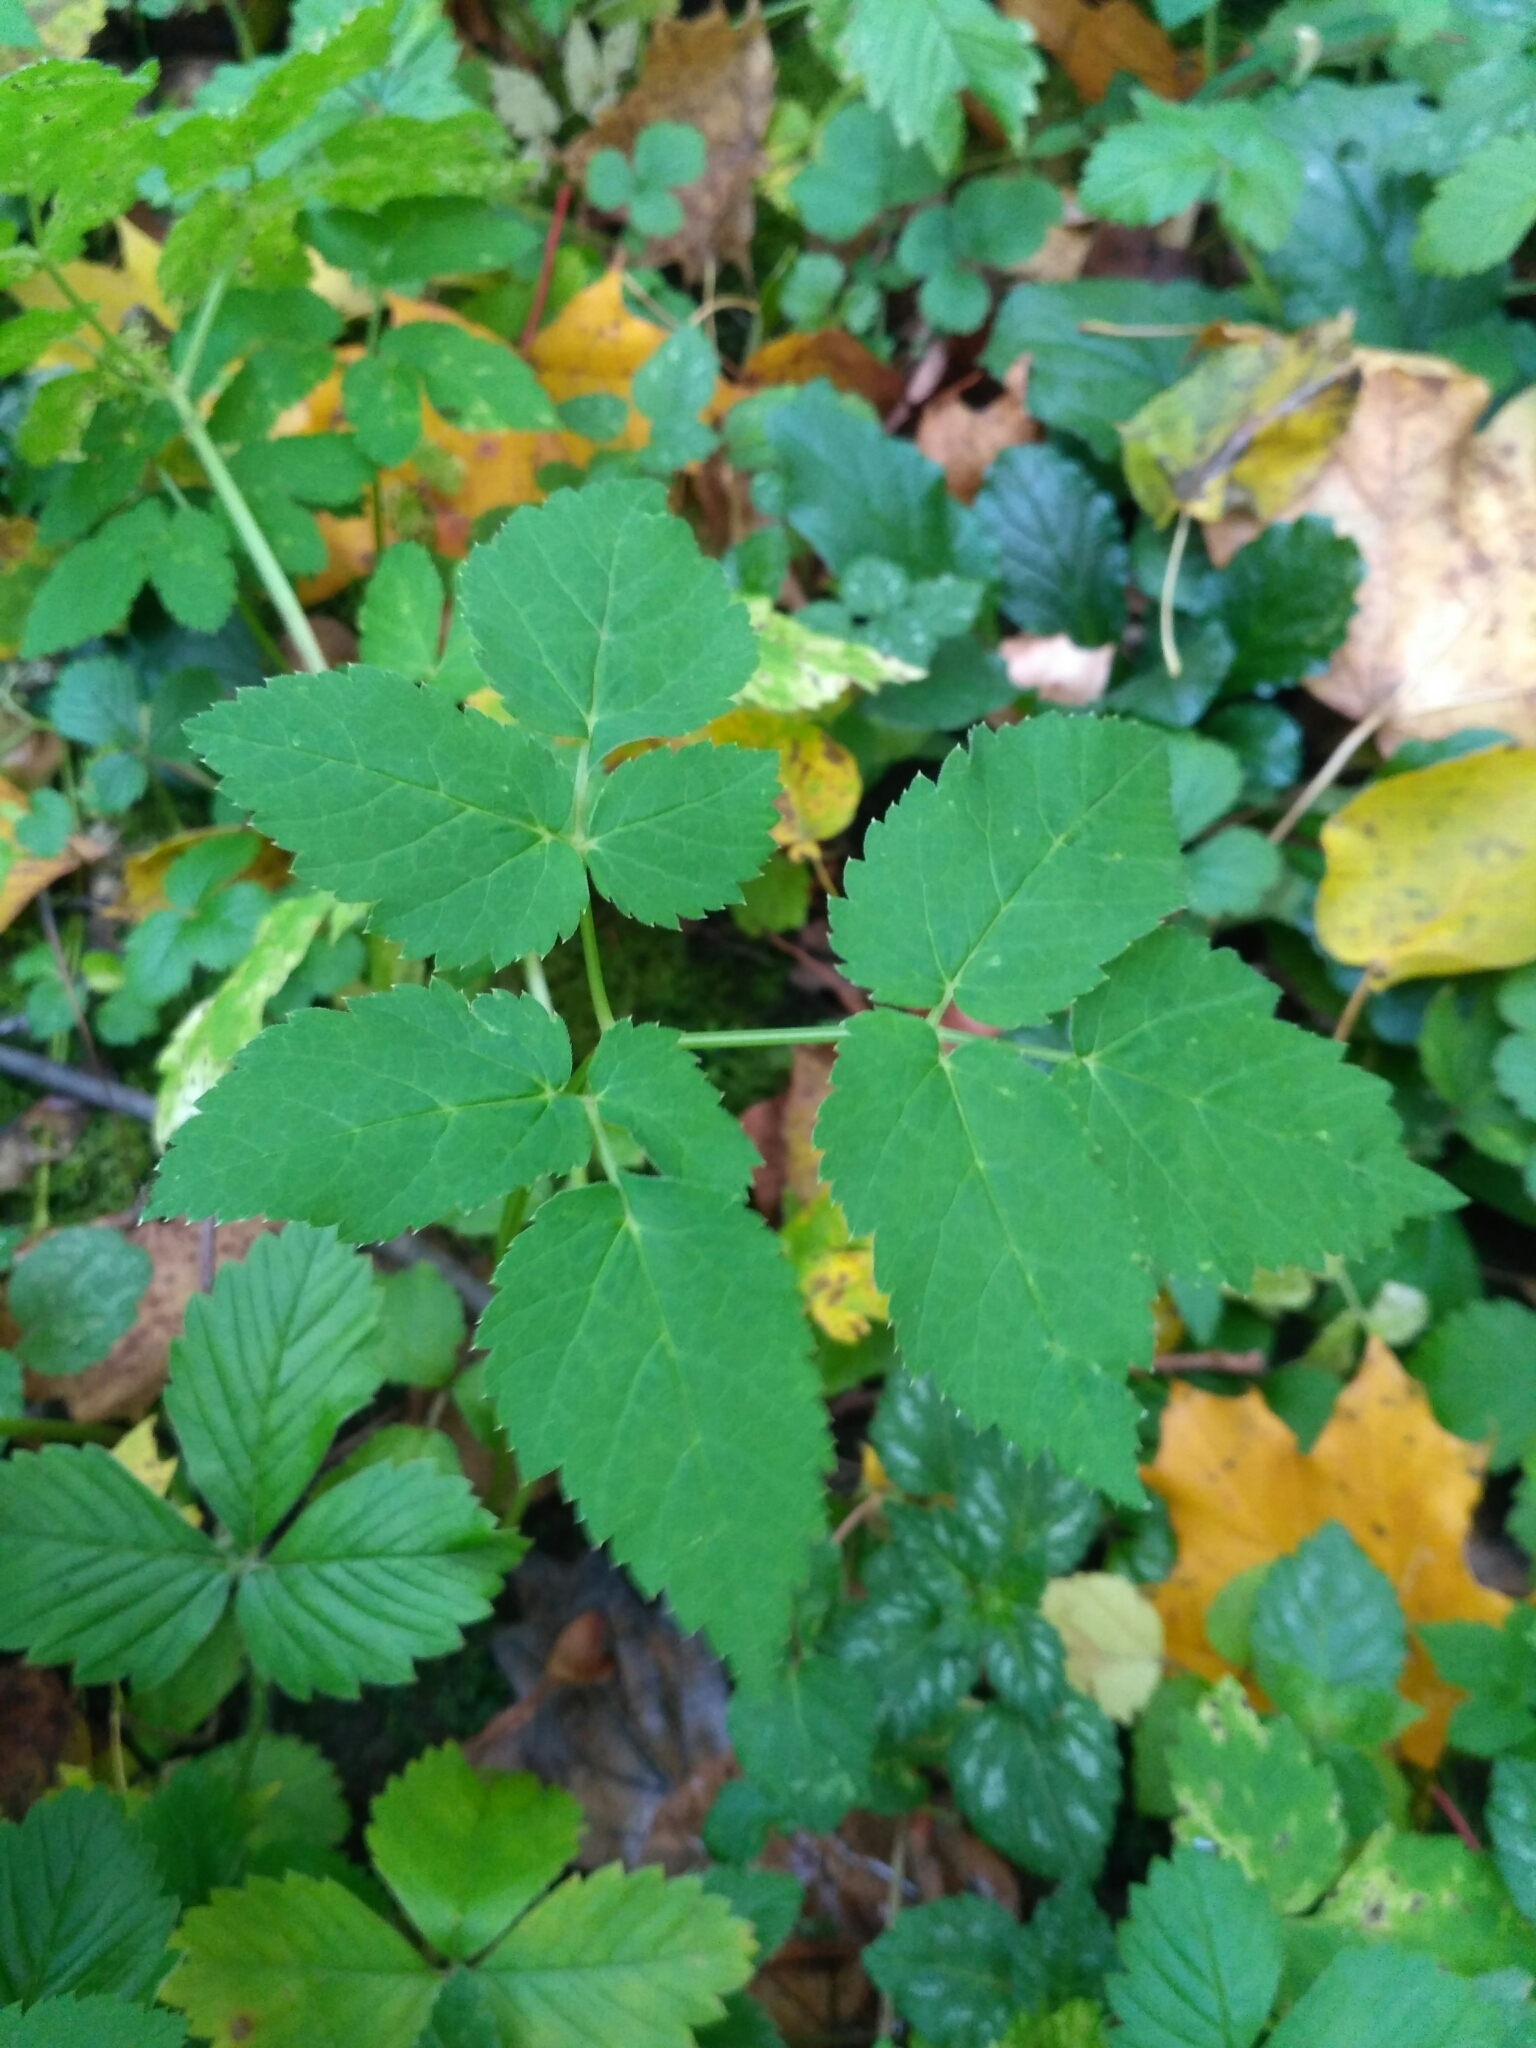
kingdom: Plantae
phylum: Tracheophyta
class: Magnoliopsida
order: Apiales
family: Apiaceae
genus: Aegopodium
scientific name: Aegopodium podagraria
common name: Ground-elder
